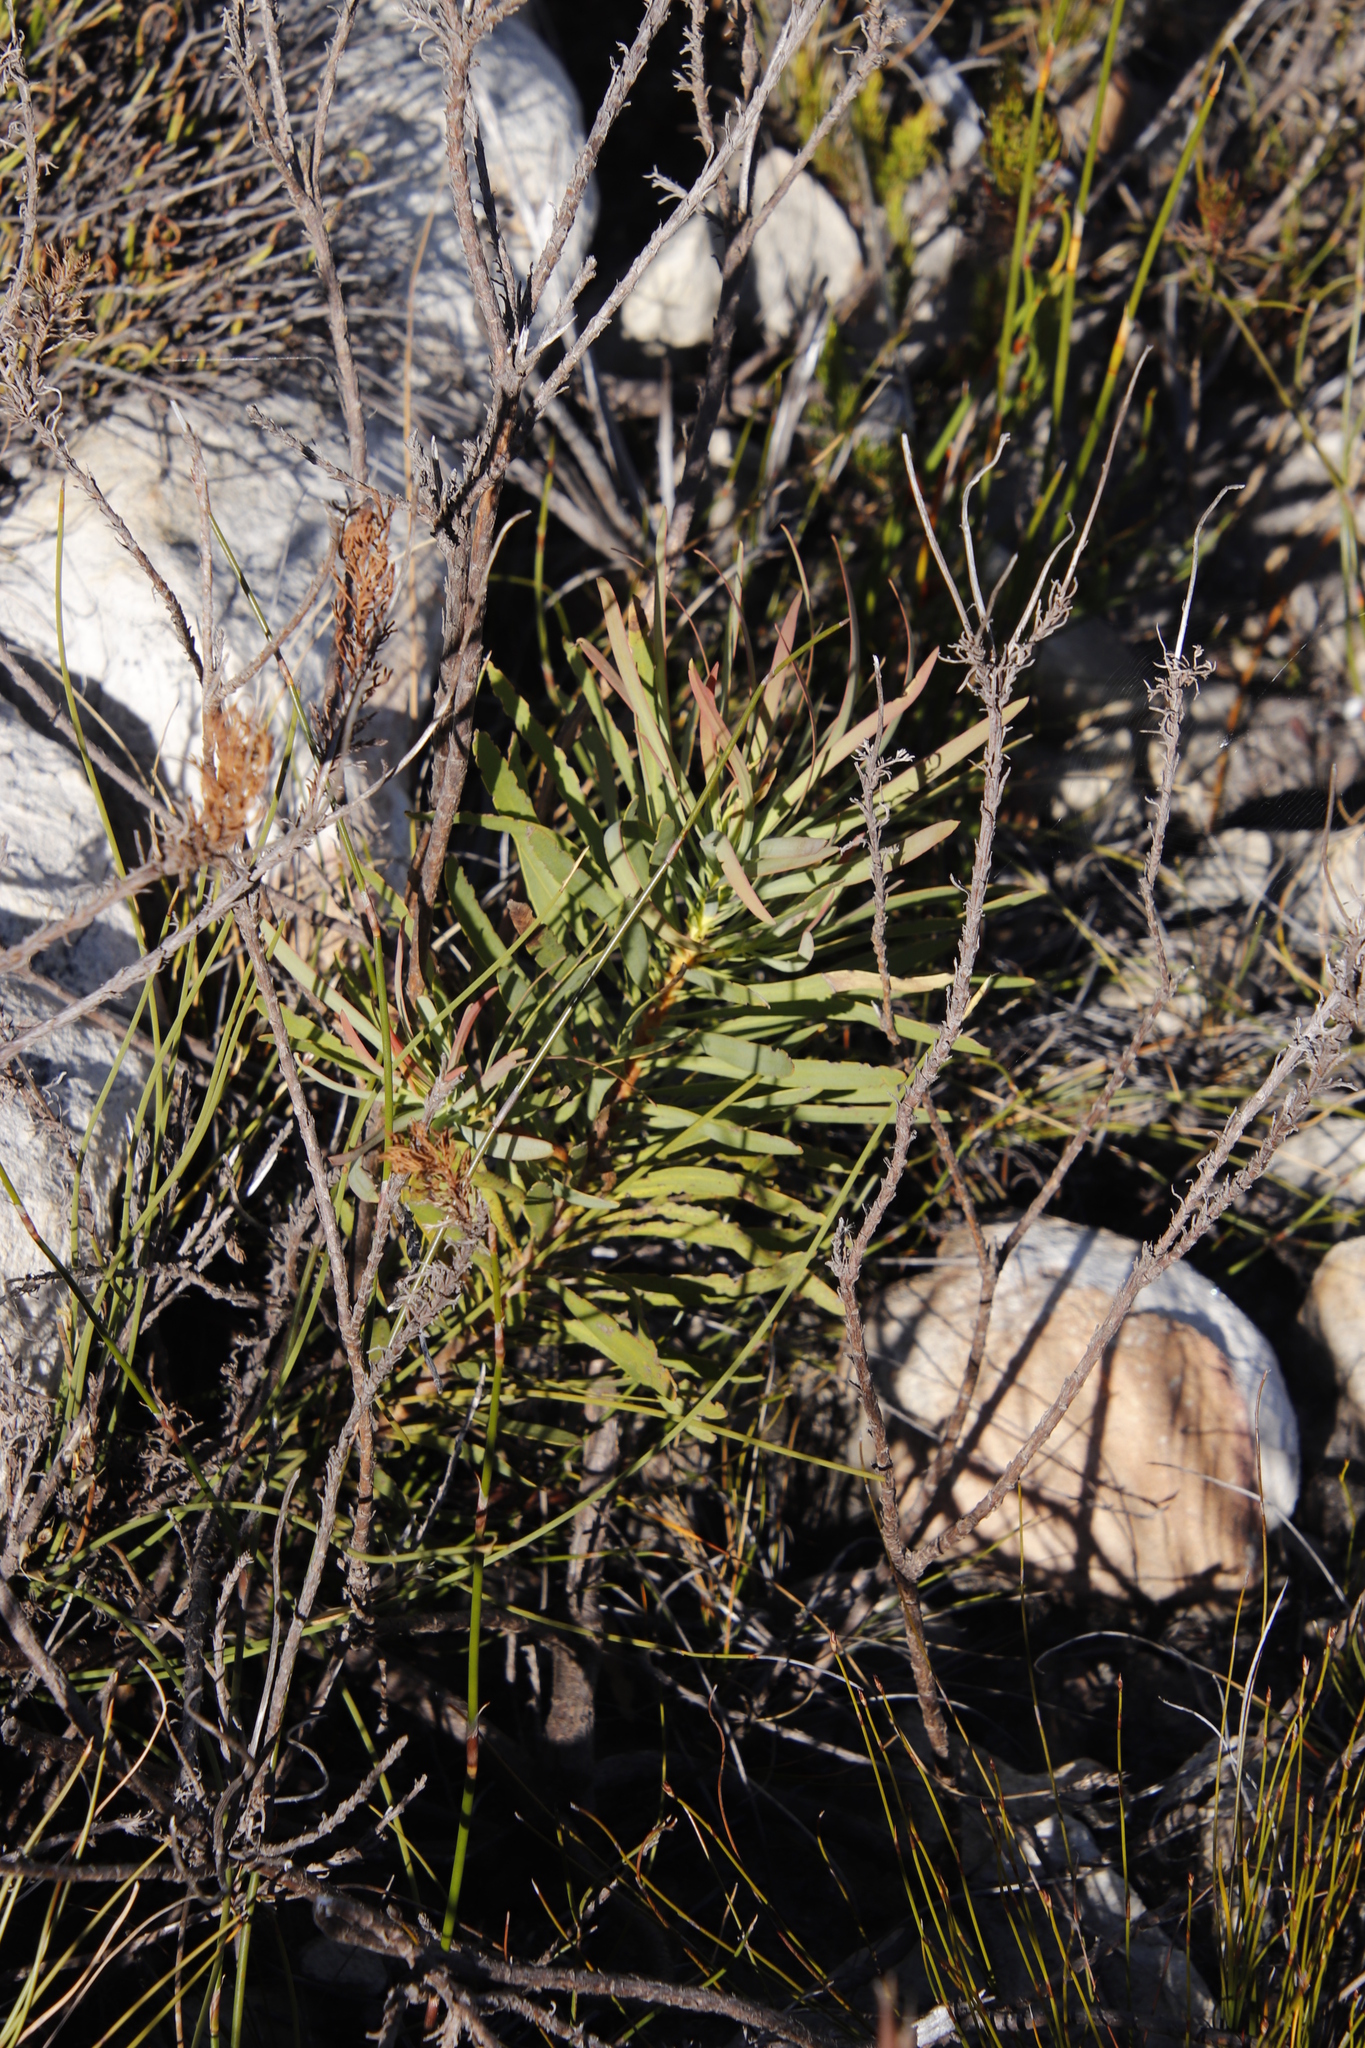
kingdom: Plantae
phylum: Tracheophyta
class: Magnoliopsida
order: Proteales
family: Proteaceae
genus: Protea
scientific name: Protea repens
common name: Sugarbush
